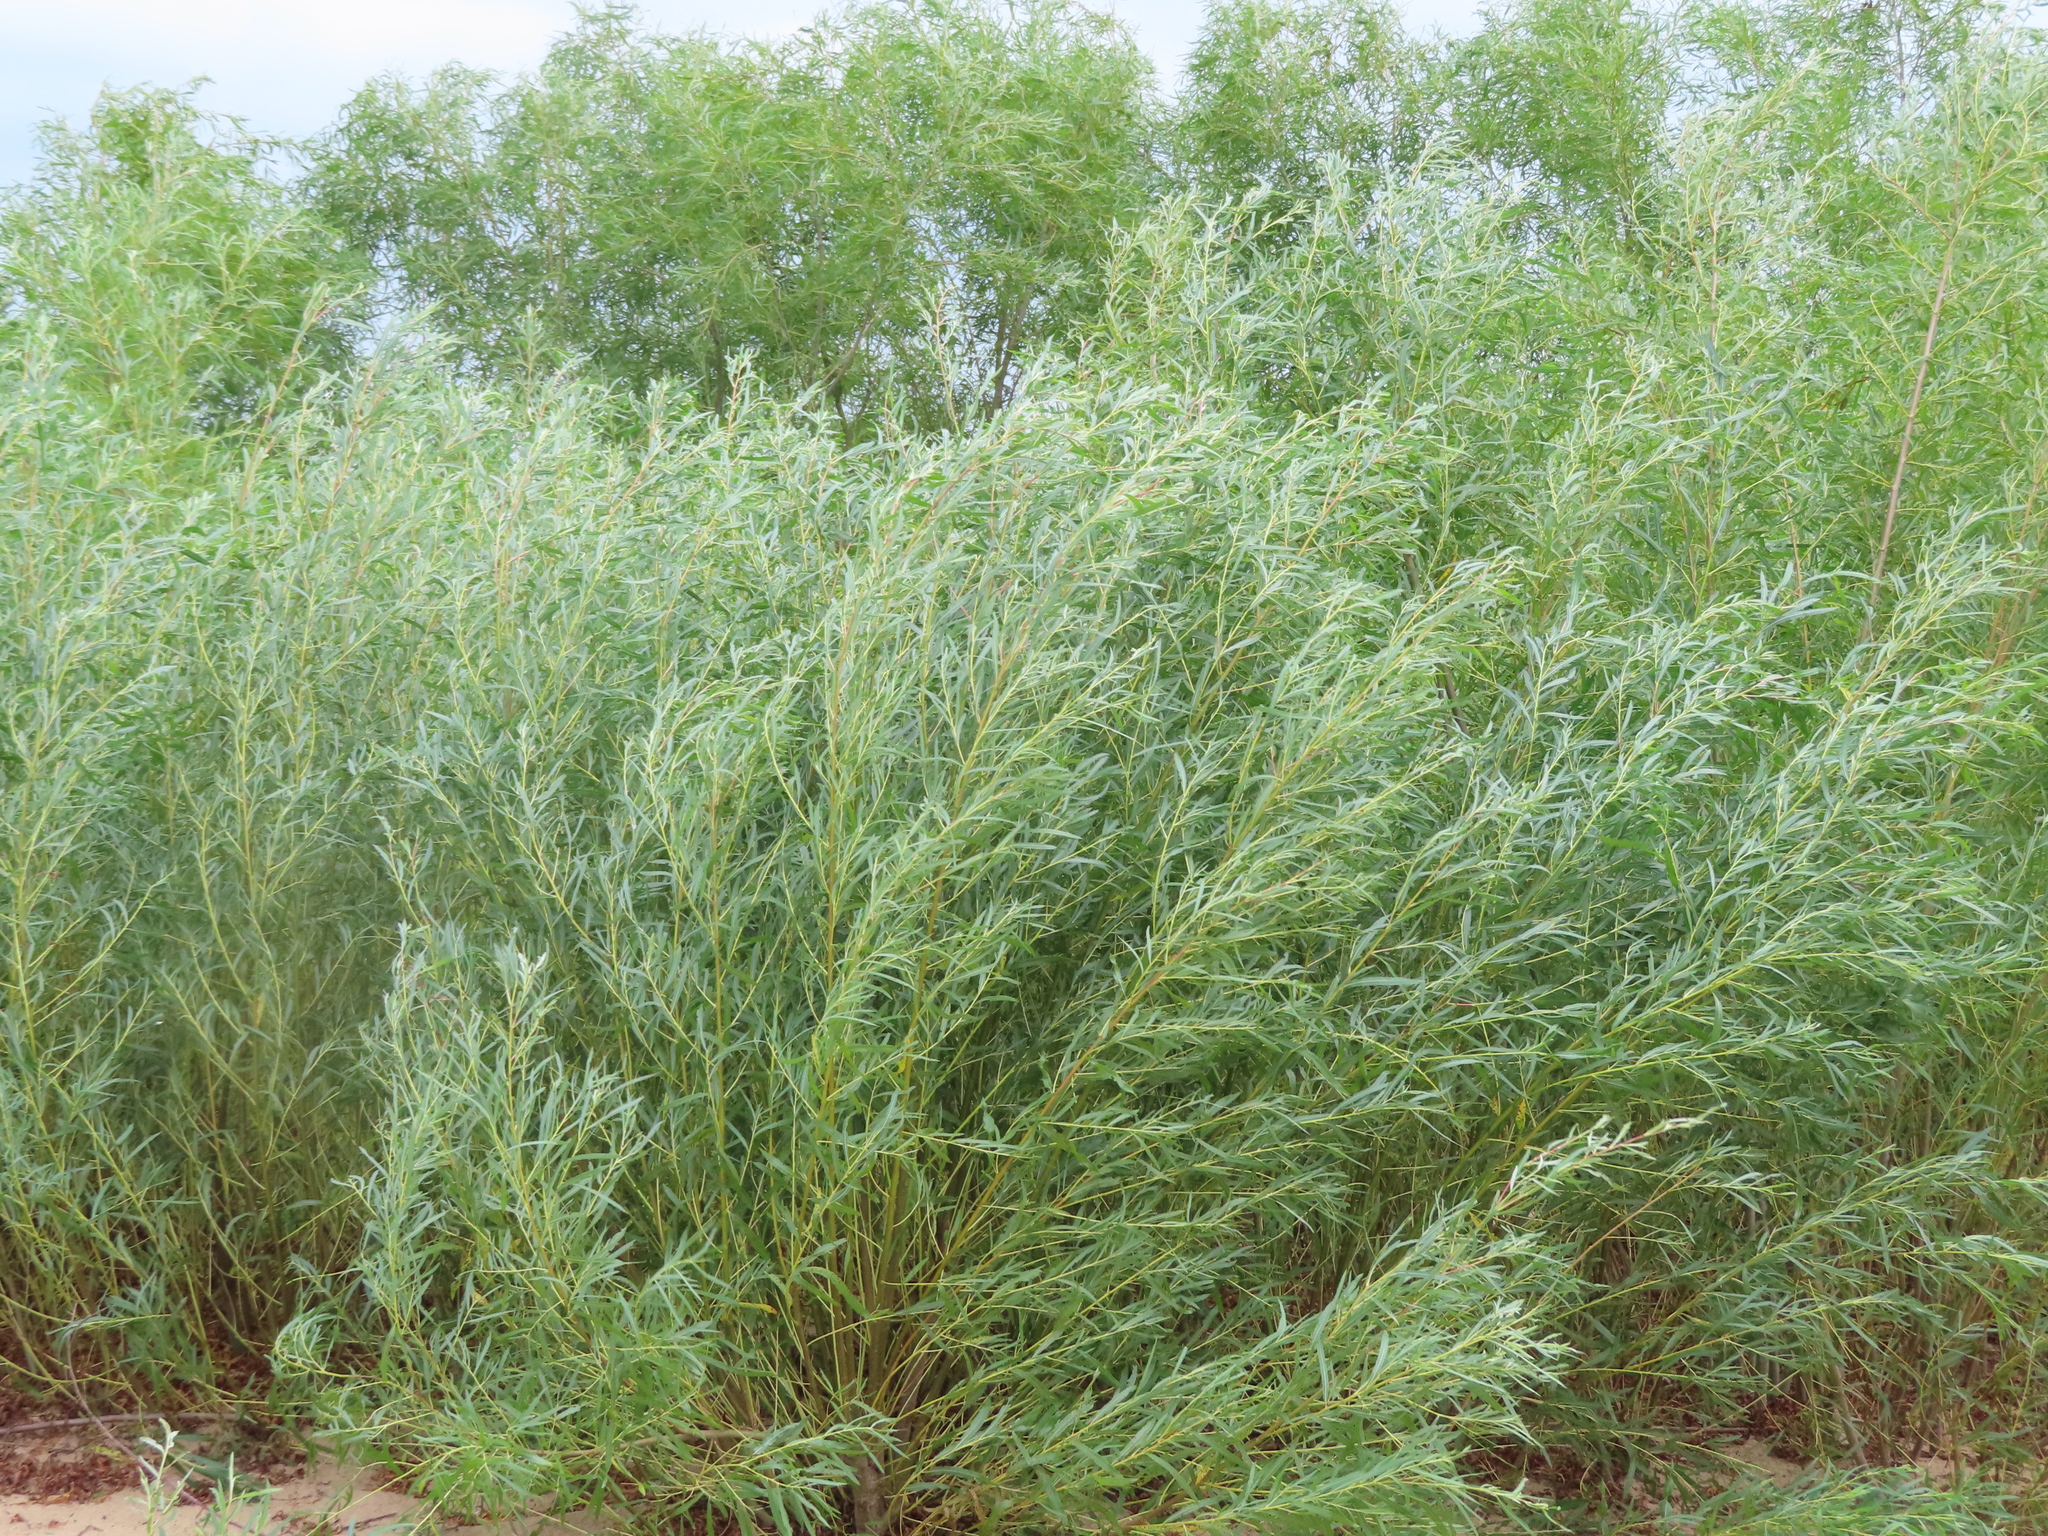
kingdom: Plantae
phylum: Tracheophyta
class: Magnoliopsida
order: Malpighiales
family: Salicaceae
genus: Salix
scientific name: Salix interior
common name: Sandbar willow
